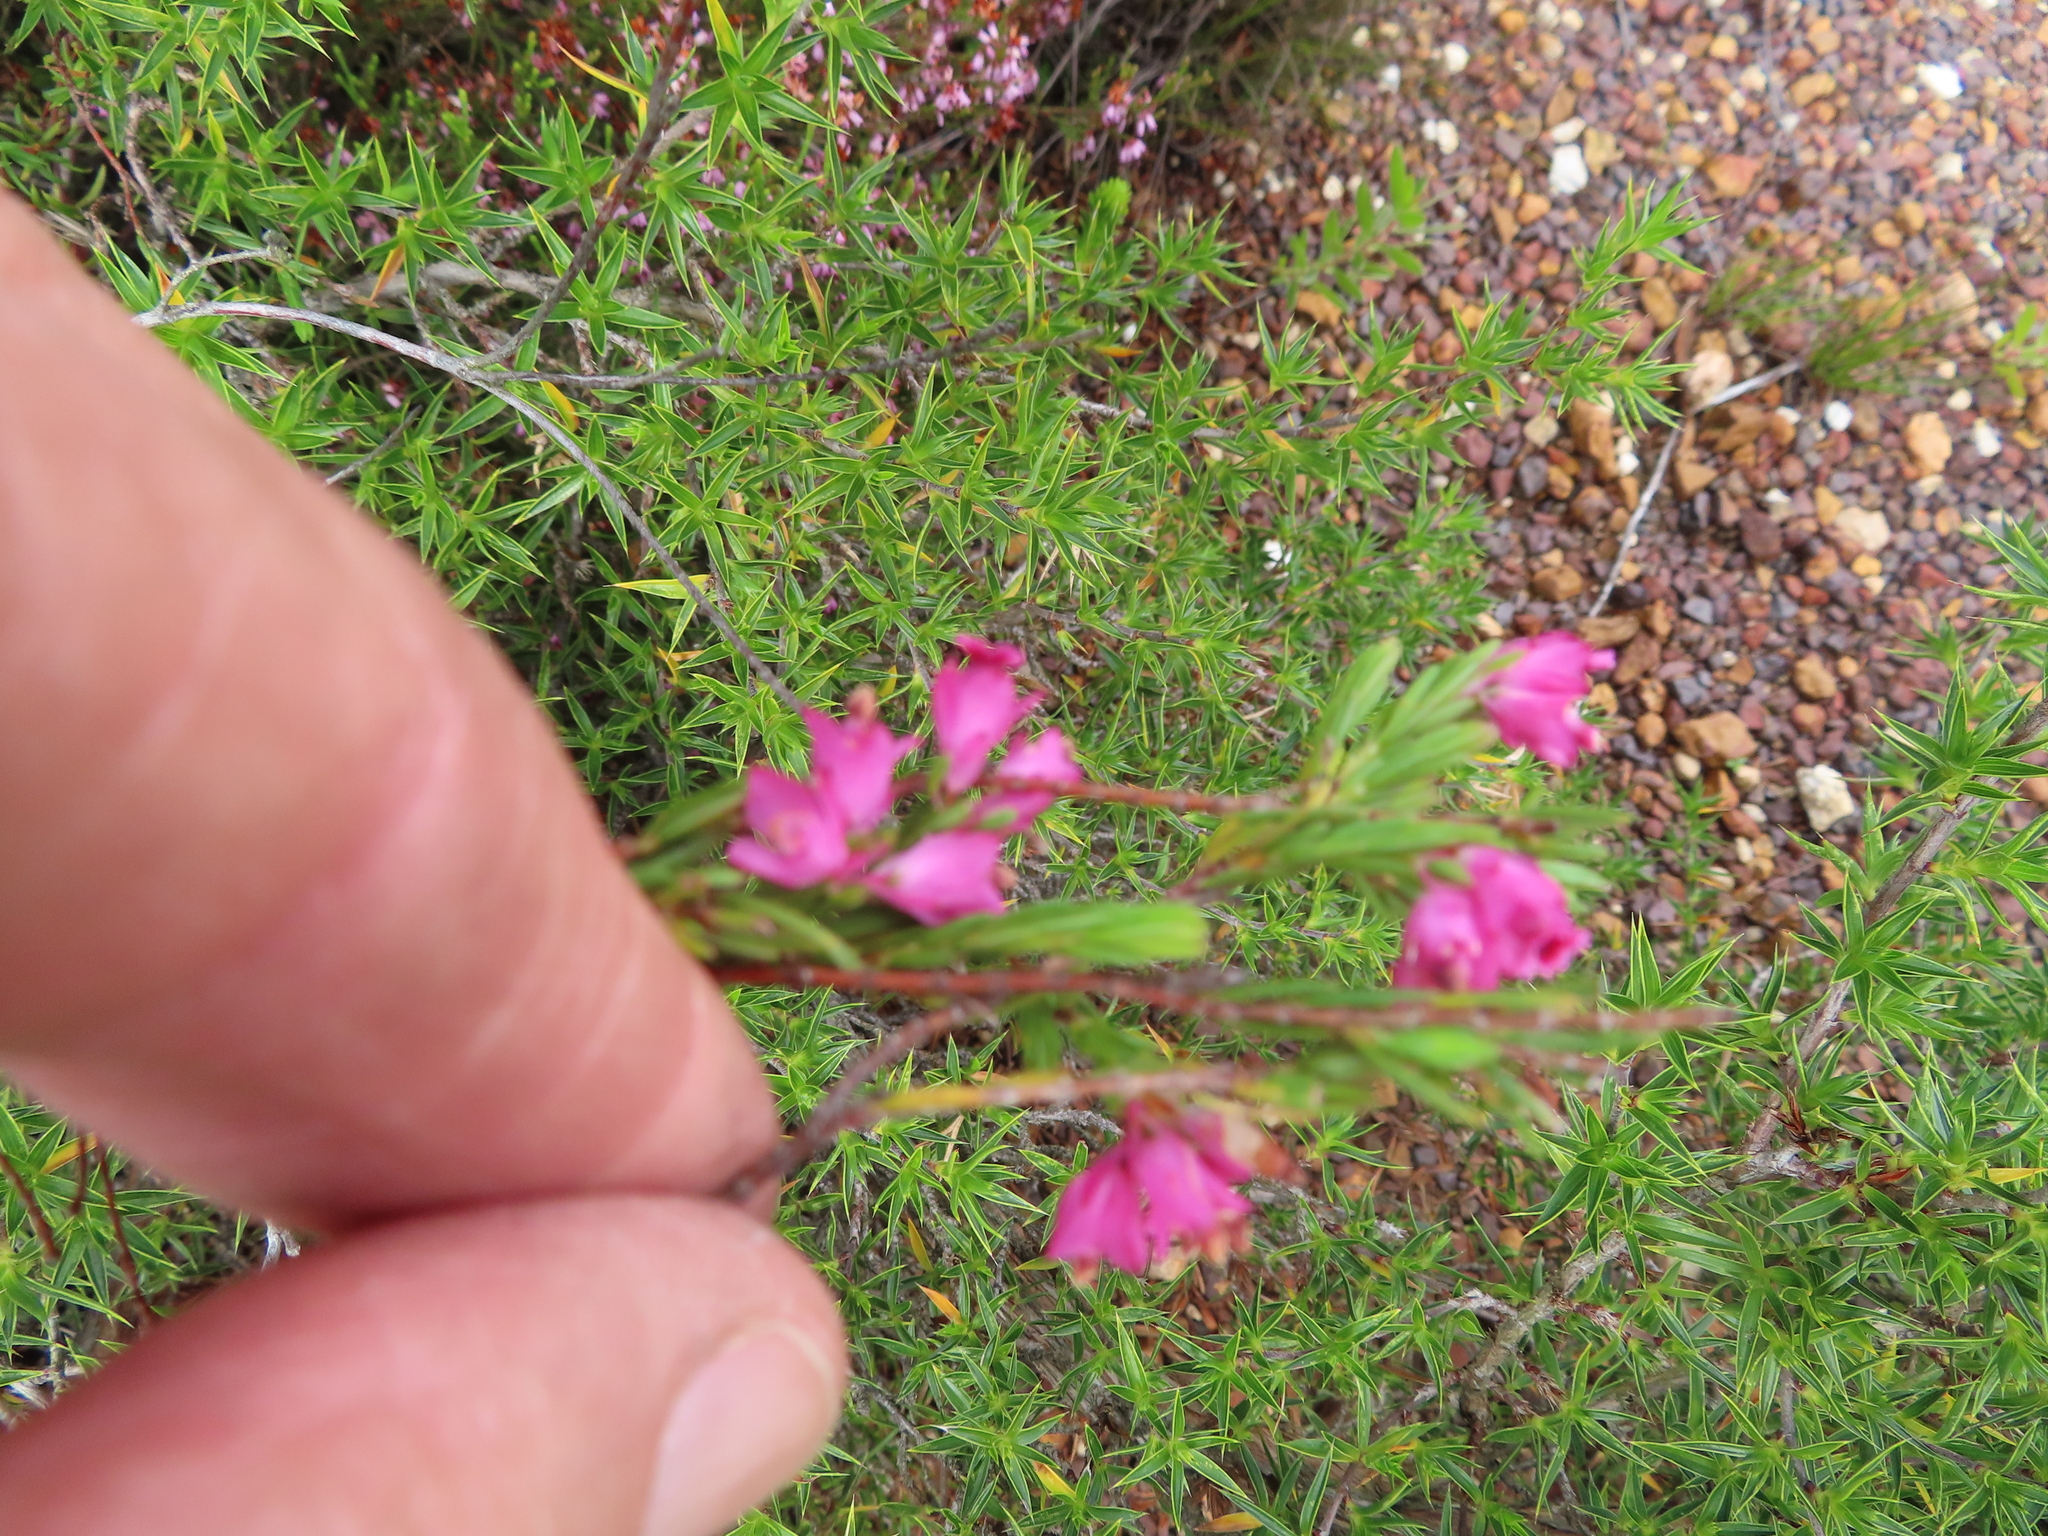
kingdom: Plantae
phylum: Tracheophyta
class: Magnoliopsida
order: Ericales
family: Ericaceae
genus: Erica
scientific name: Erica taxifolia
